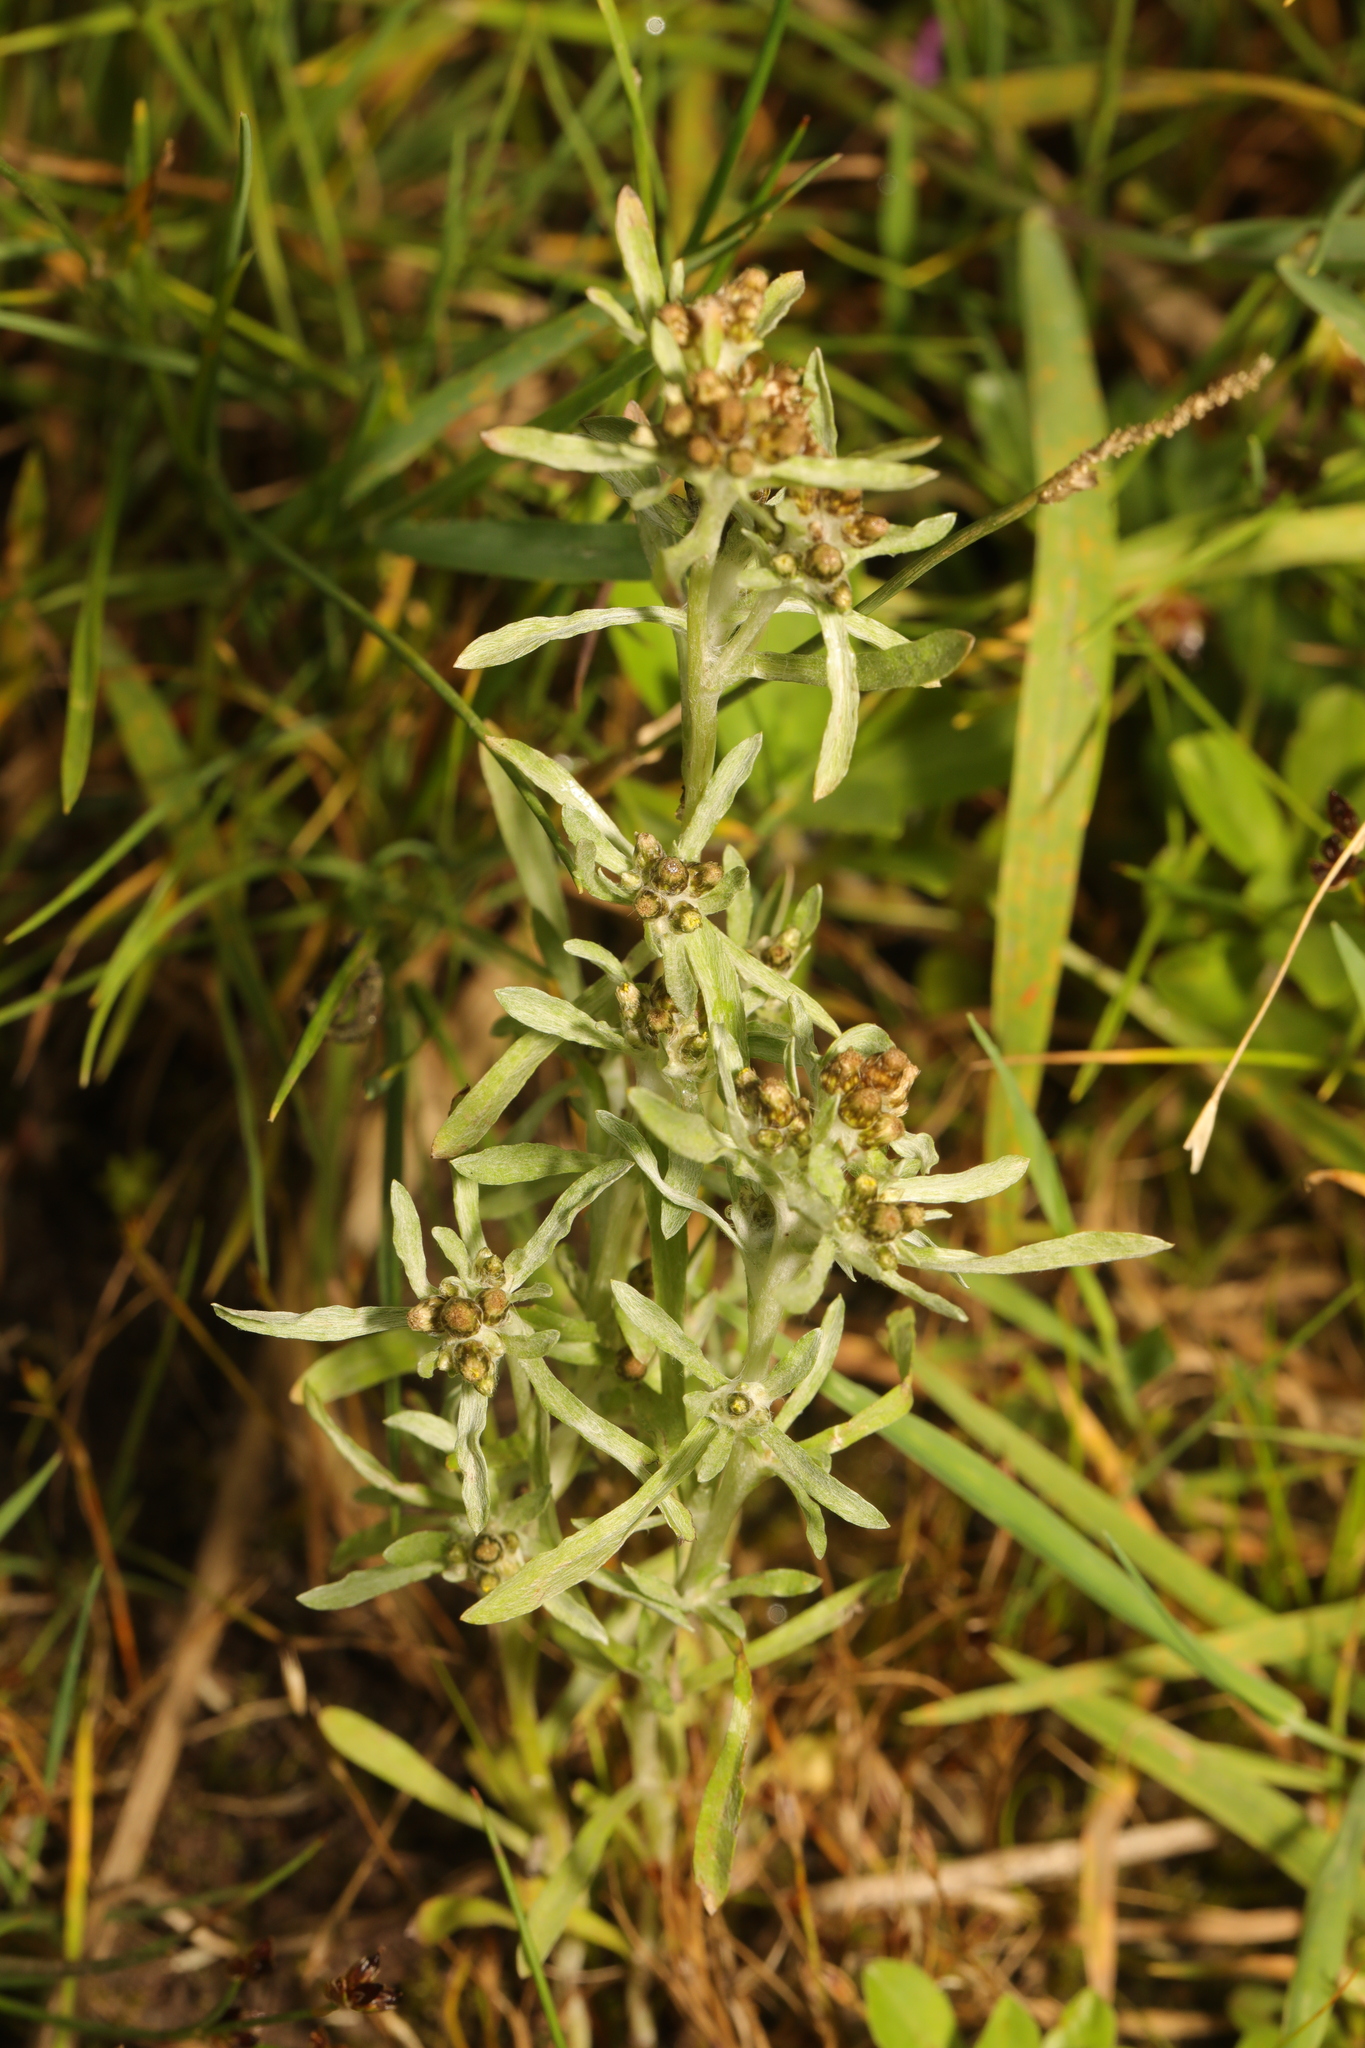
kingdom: Plantae
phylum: Tracheophyta
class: Magnoliopsida
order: Asterales
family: Asteraceae
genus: Gnaphalium
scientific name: Gnaphalium uliginosum
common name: Marsh cudweed
